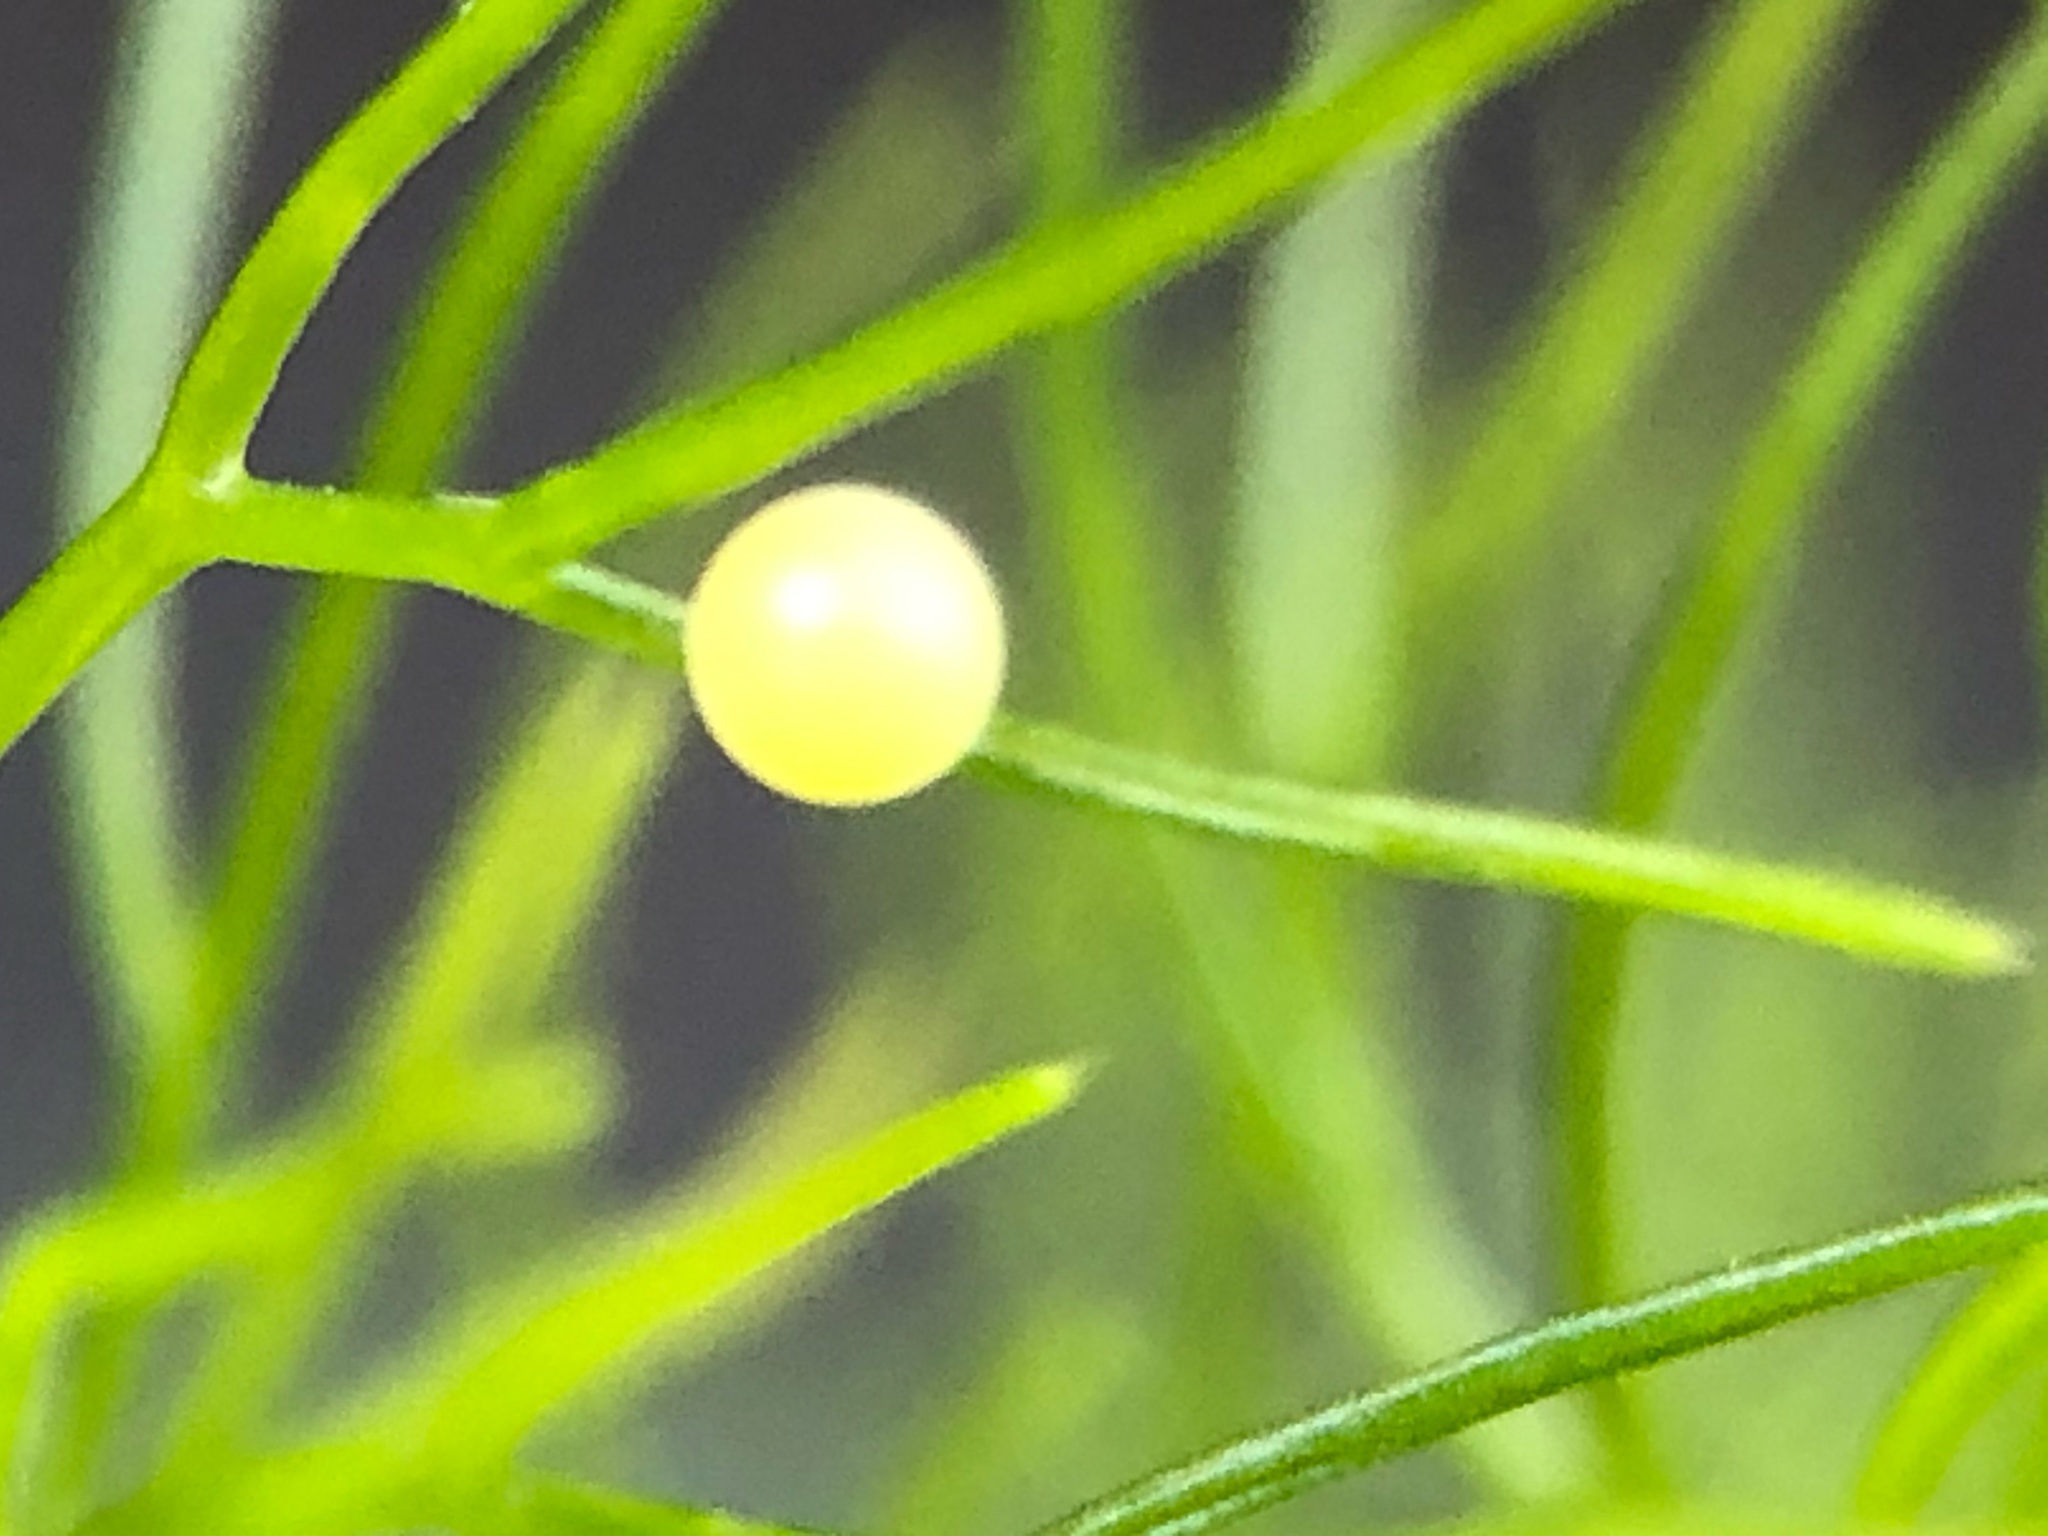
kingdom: Animalia
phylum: Arthropoda
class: Insecta
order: Lepidoptera
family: Papilionidae
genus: Papilio
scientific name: Papilio zelicaon
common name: Anise swallowtail
